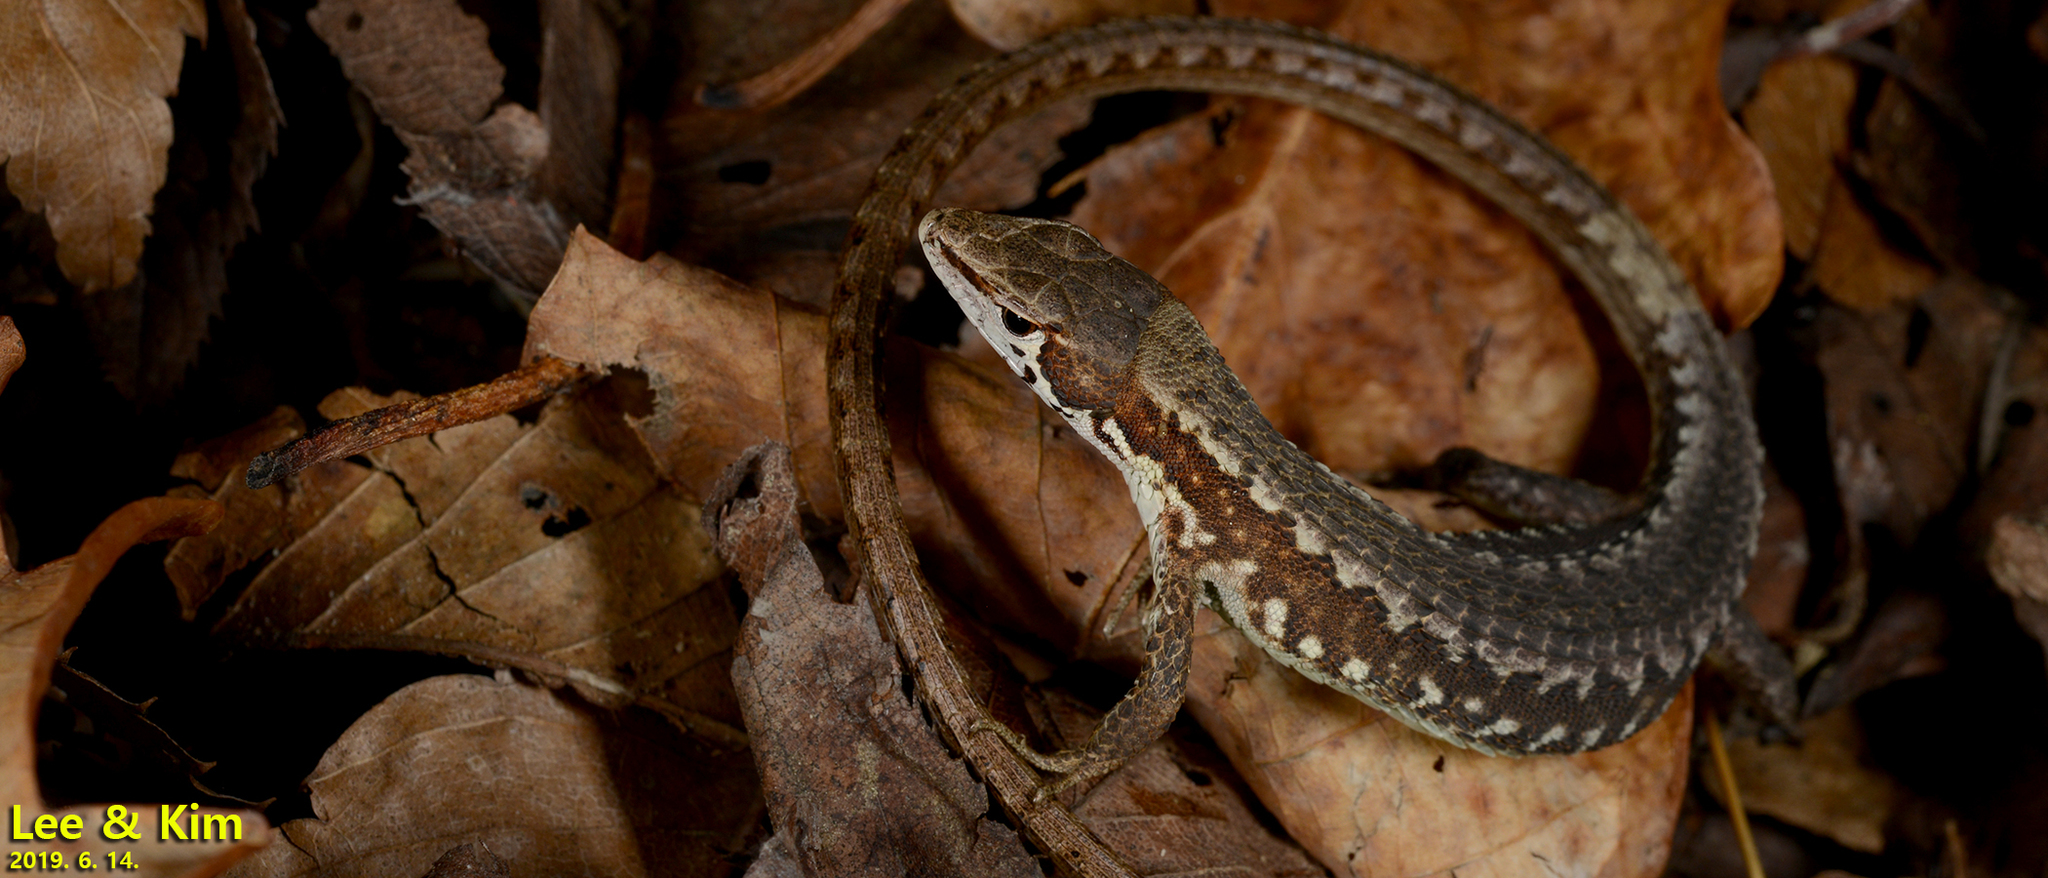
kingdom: Animalia
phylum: Chordata
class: Squamata
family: Lacertidae
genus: Takydromus
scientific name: Takydromus amurensis
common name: Amur grass lizard
